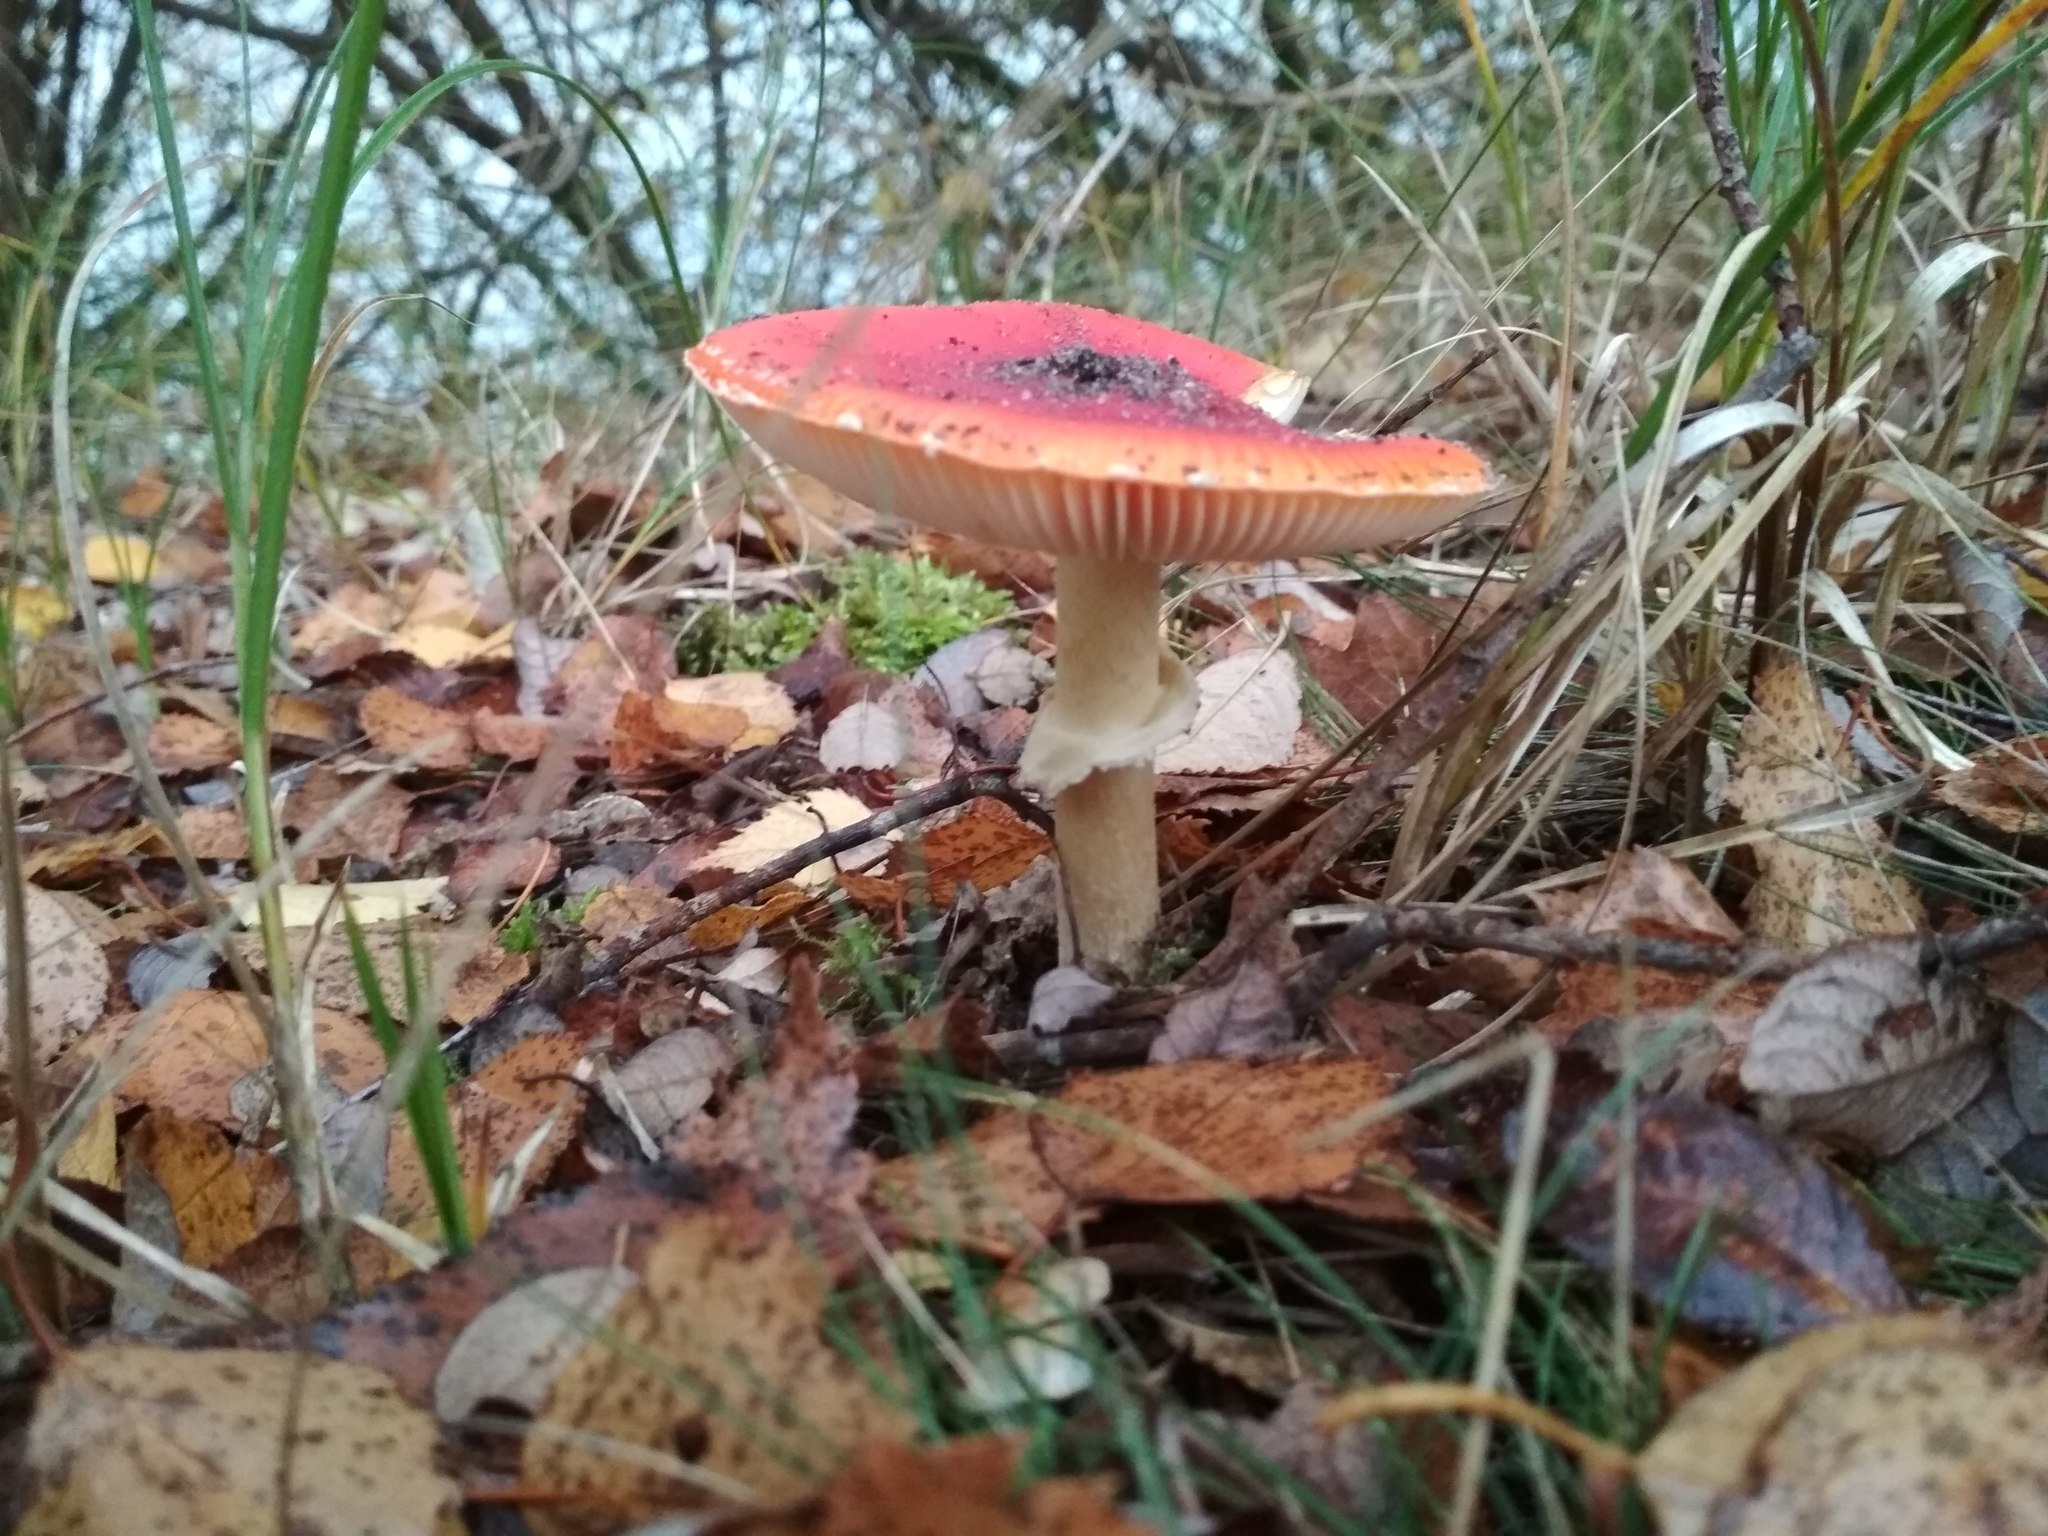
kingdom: Fungi
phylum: Basidiomycota
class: Agaricomycetes
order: Agaricales
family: Amanitaceae
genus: Amanita
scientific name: Amanita muscaria
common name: Fly agaric
